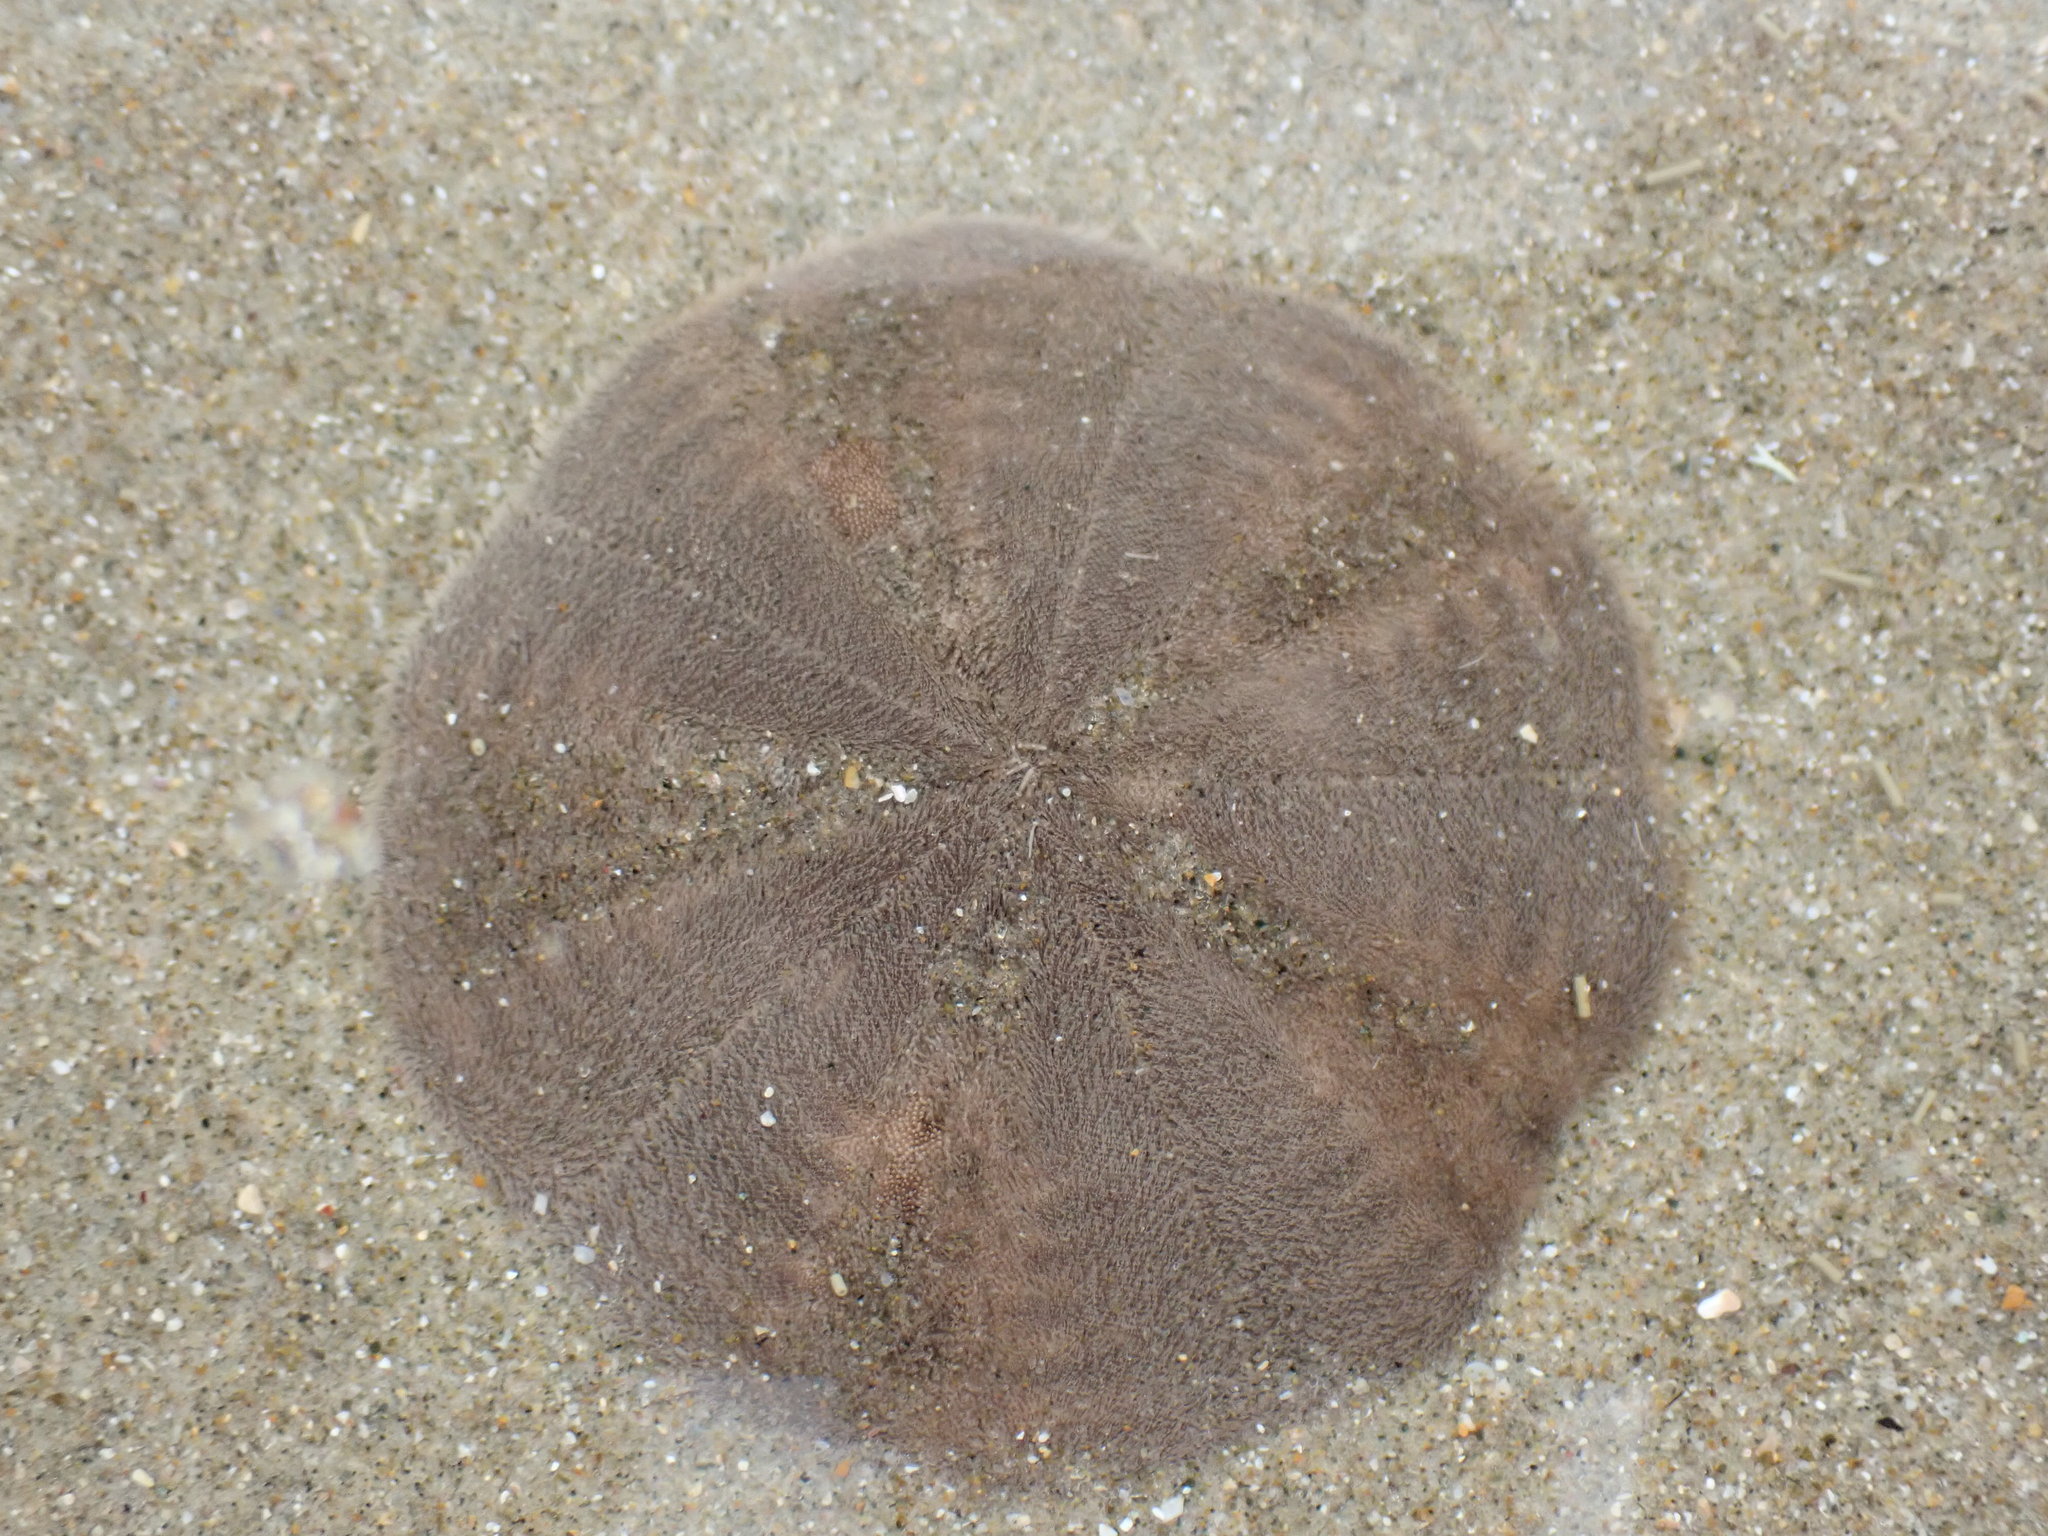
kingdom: Animalia
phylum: Echinodermata
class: Echinoidea
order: Clypeasteroida
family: Clypeasteridae
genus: Fellaster
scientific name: Fellaster zelandiae
